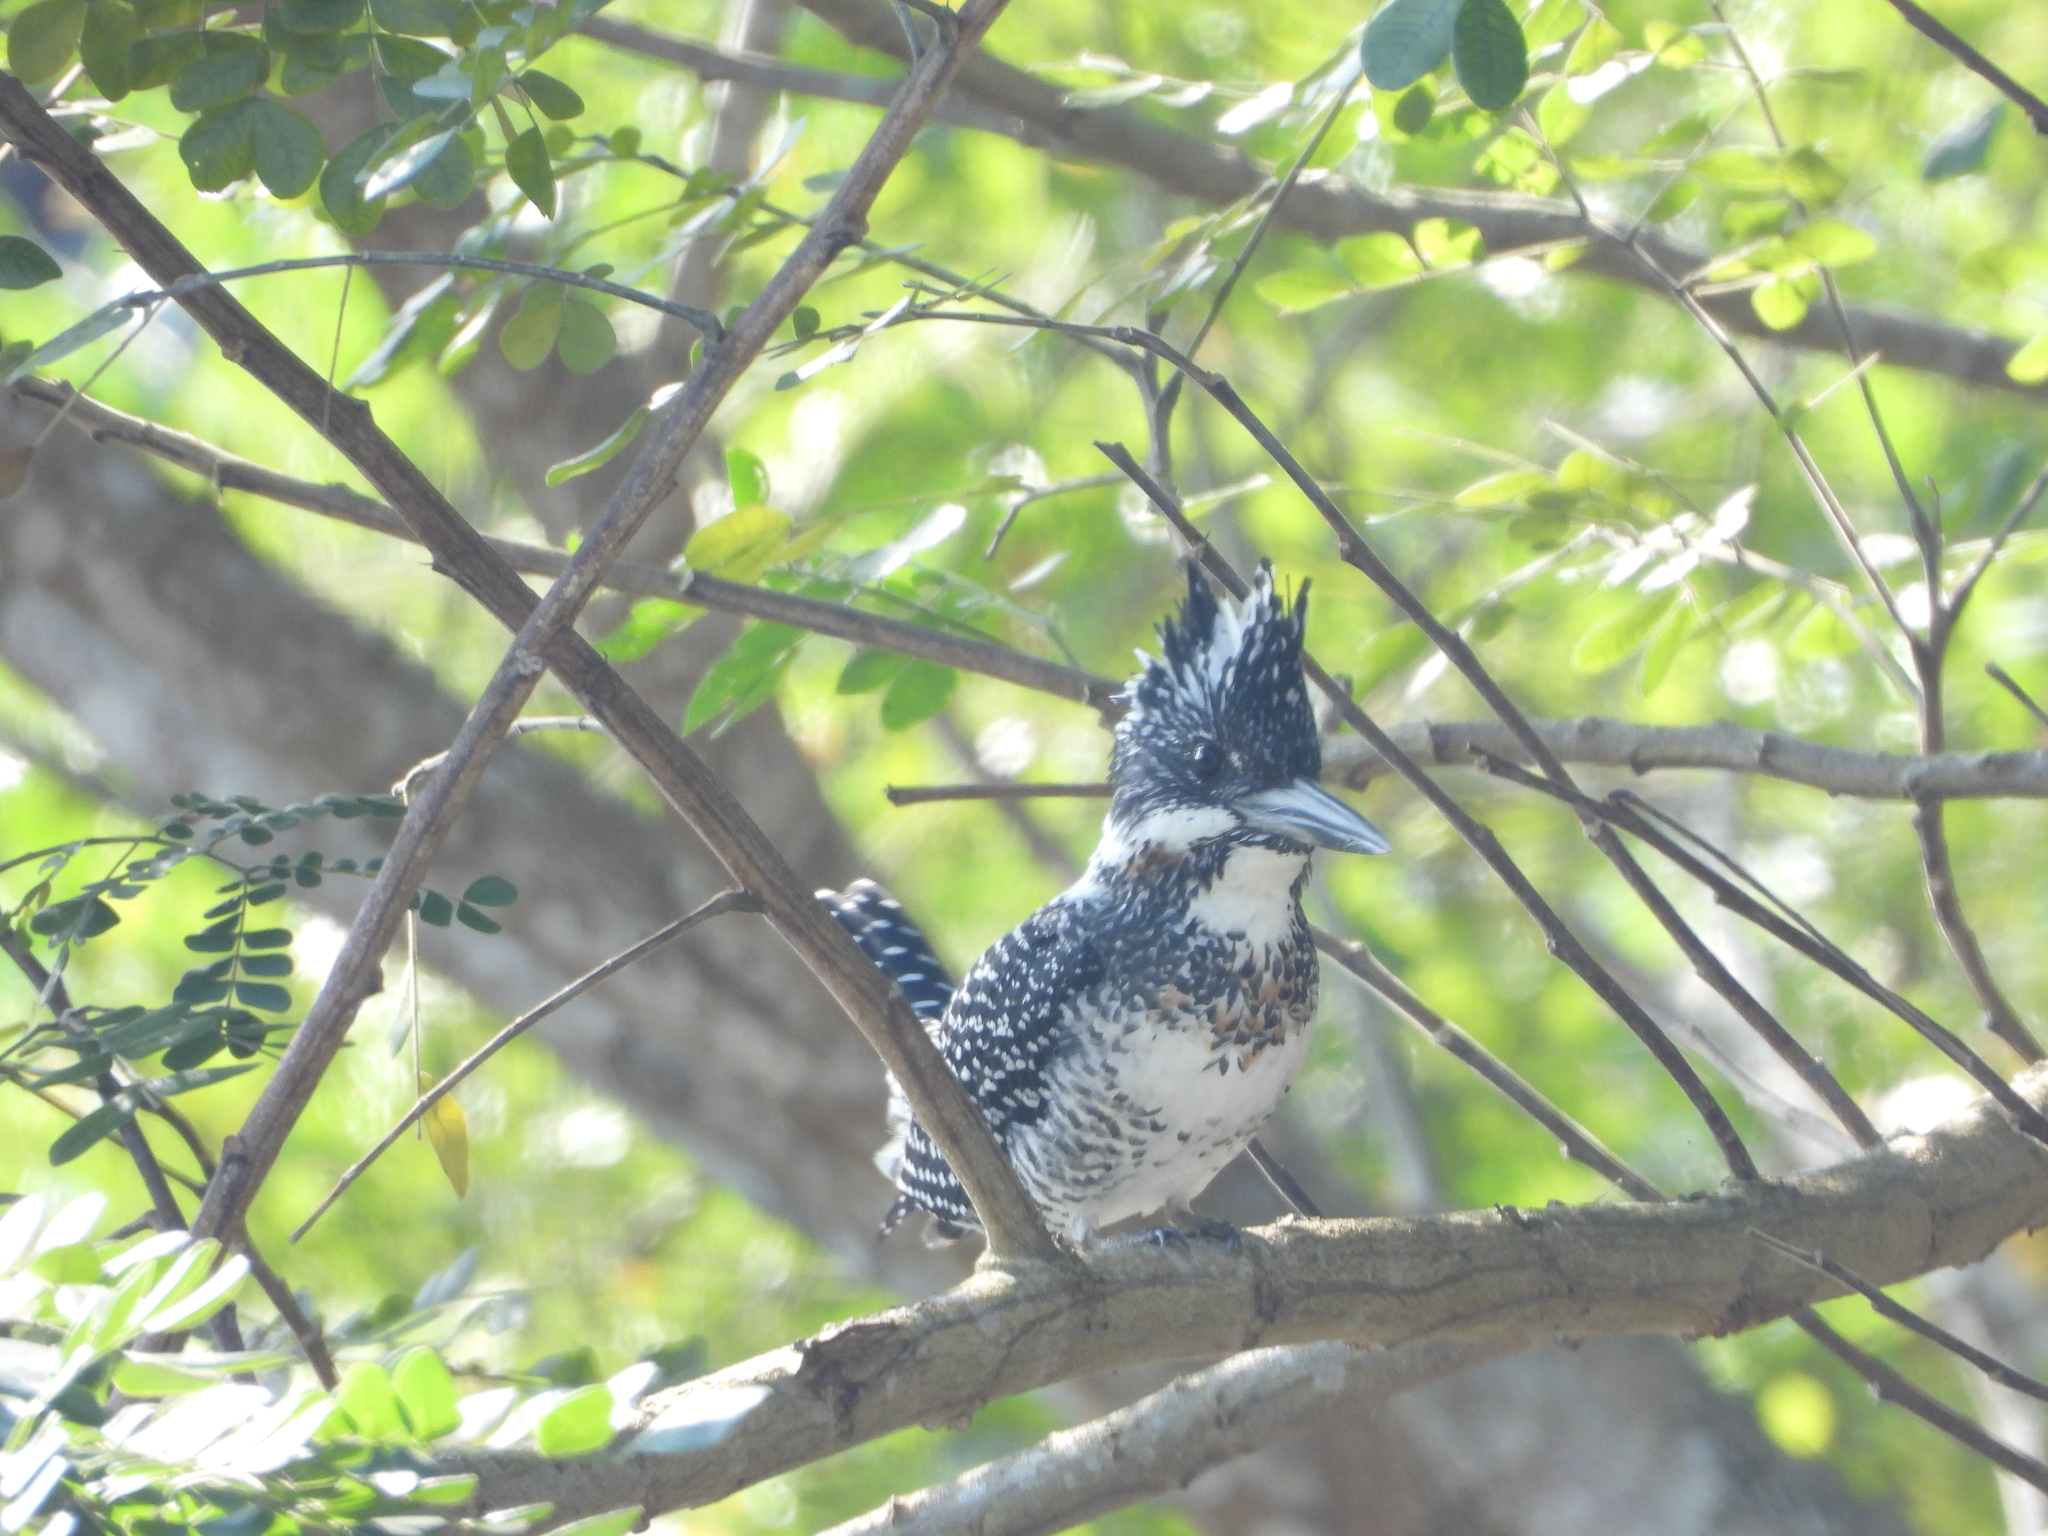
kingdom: Animalia
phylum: Chordata
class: Aves
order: Coraciiformes
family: Alcedinidae
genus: Megaceryle
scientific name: Megaceryle lugubris
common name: Crested kingfisher
